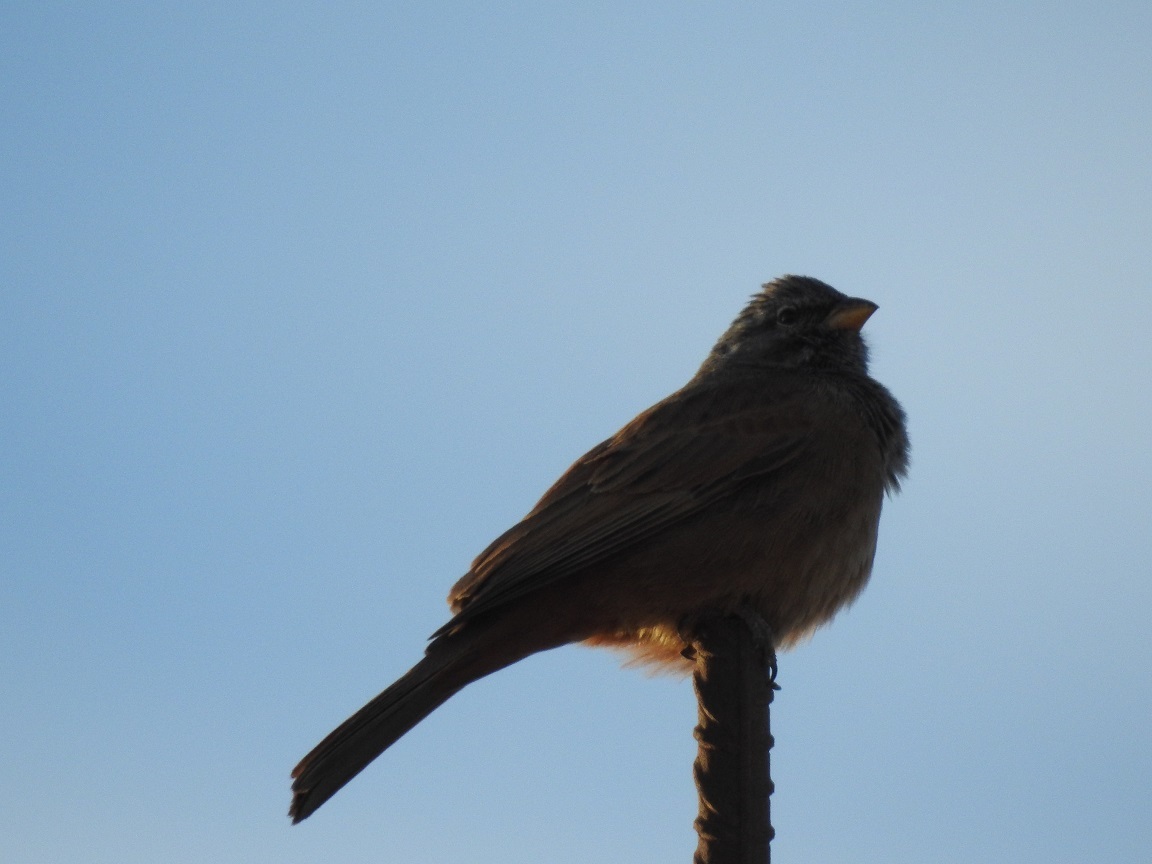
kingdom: Animalia
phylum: Chordata
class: Aves
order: Passeriformes
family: Emberizidae
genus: Emberiza
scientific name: Emberiza sahari
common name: House bunting
